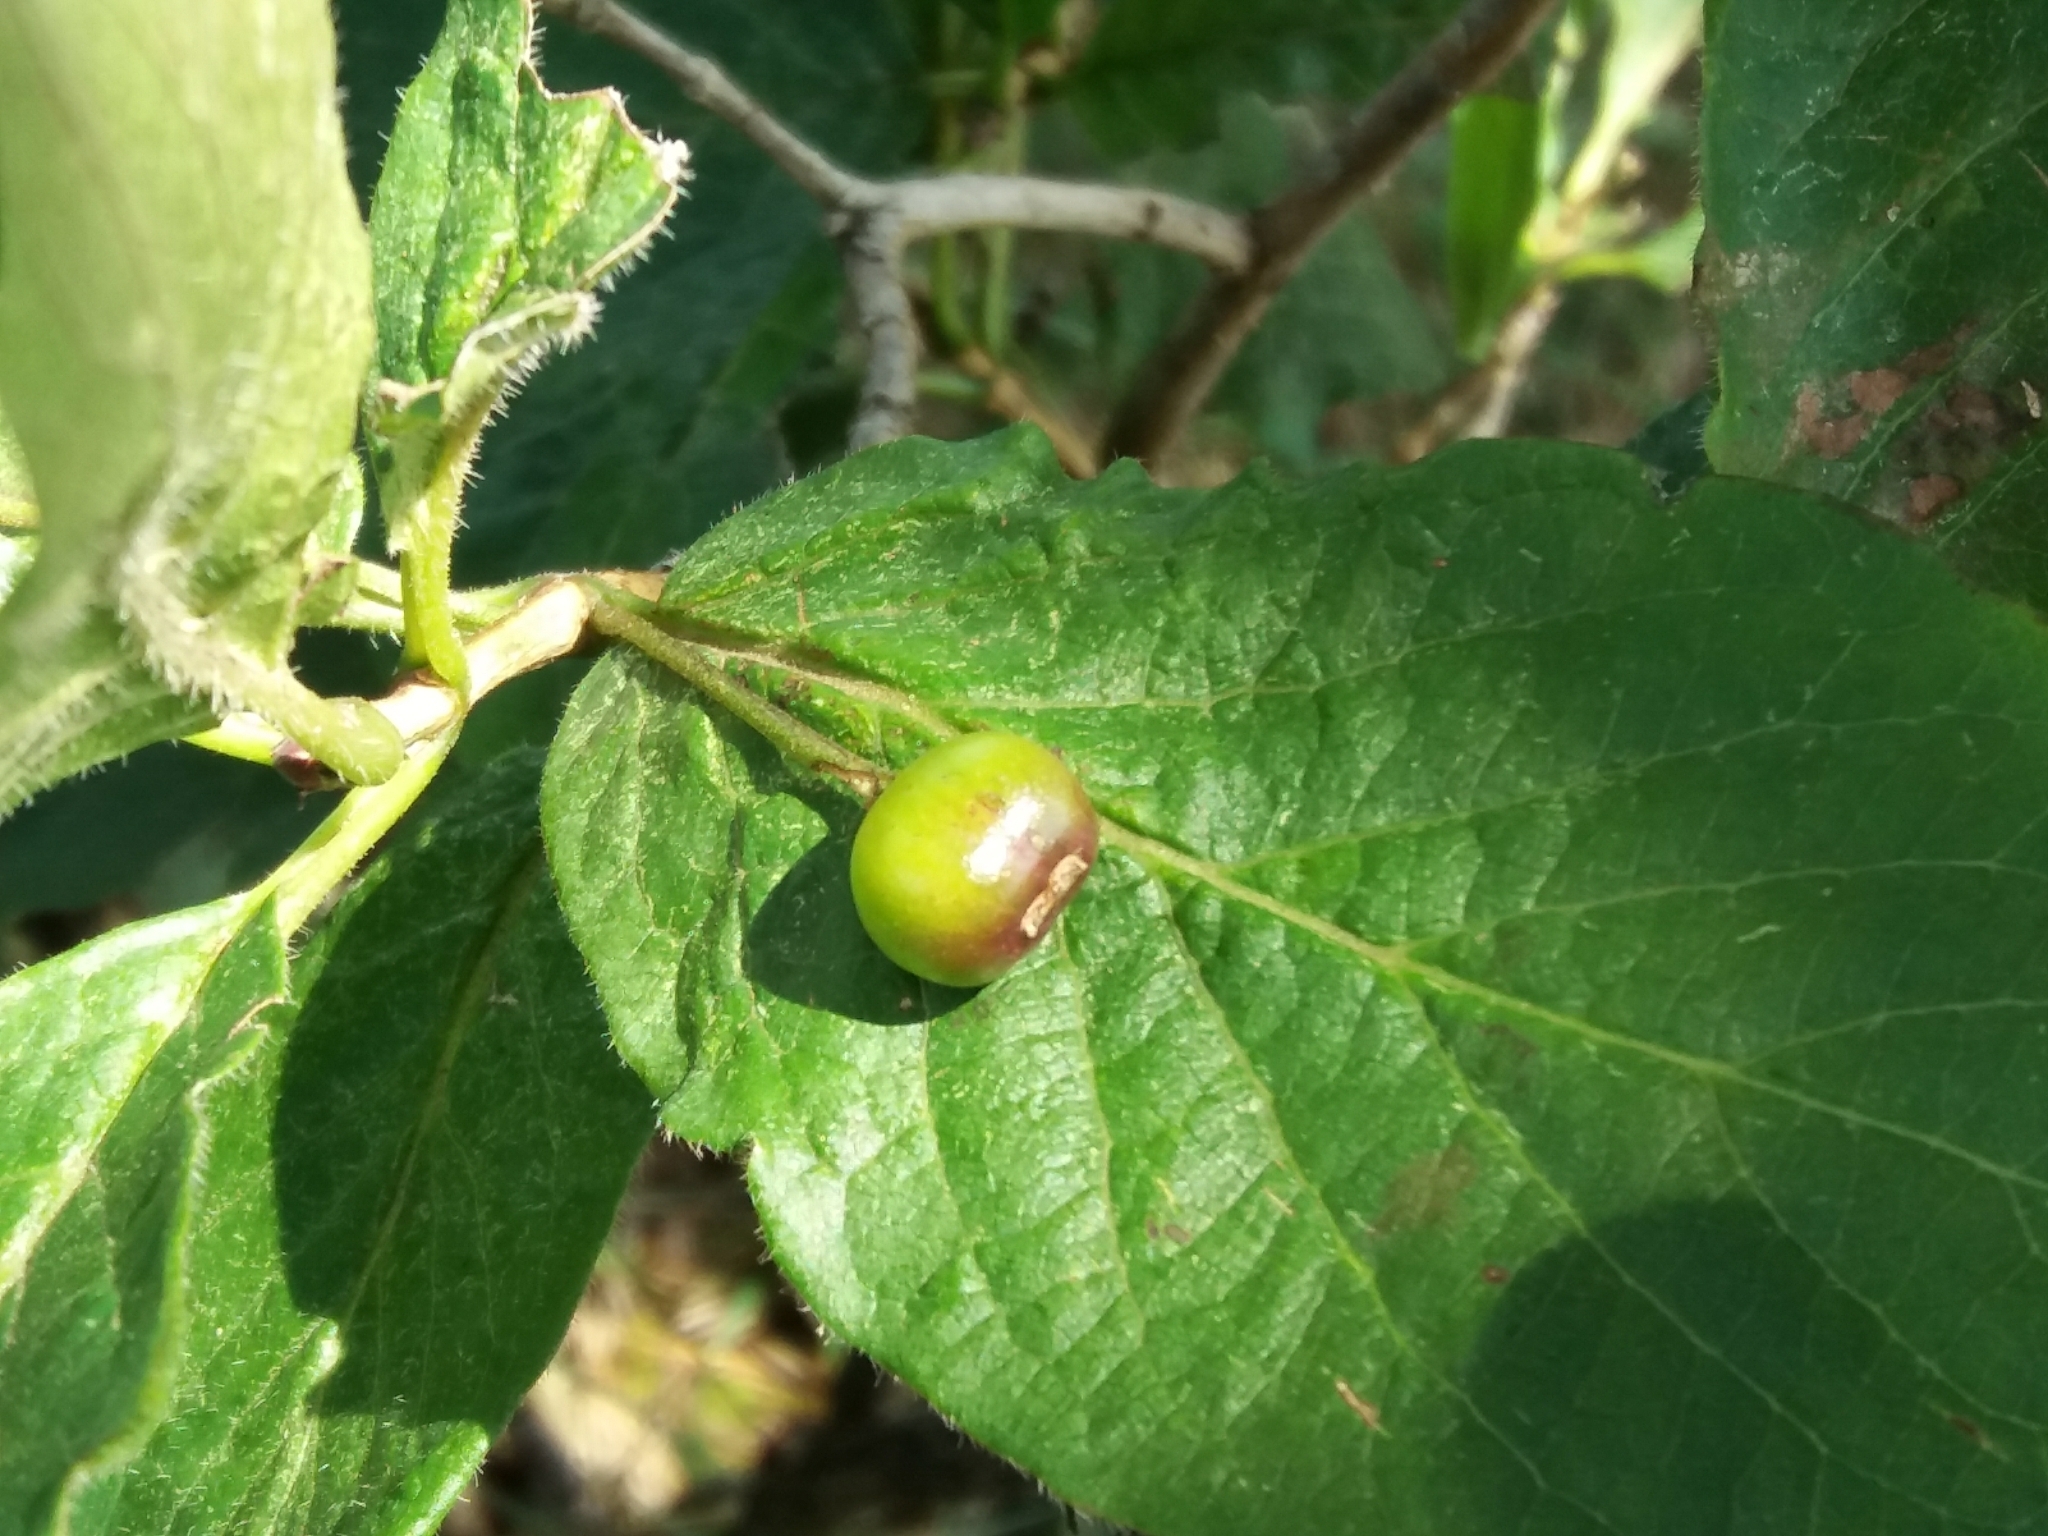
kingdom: Plantae
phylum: Tracheophyta
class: Magnoliopsida
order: Dipsacales
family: Caprifoliaceae
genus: Lonicera
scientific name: Lonicera alpigena
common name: Alpine honeysuckle
